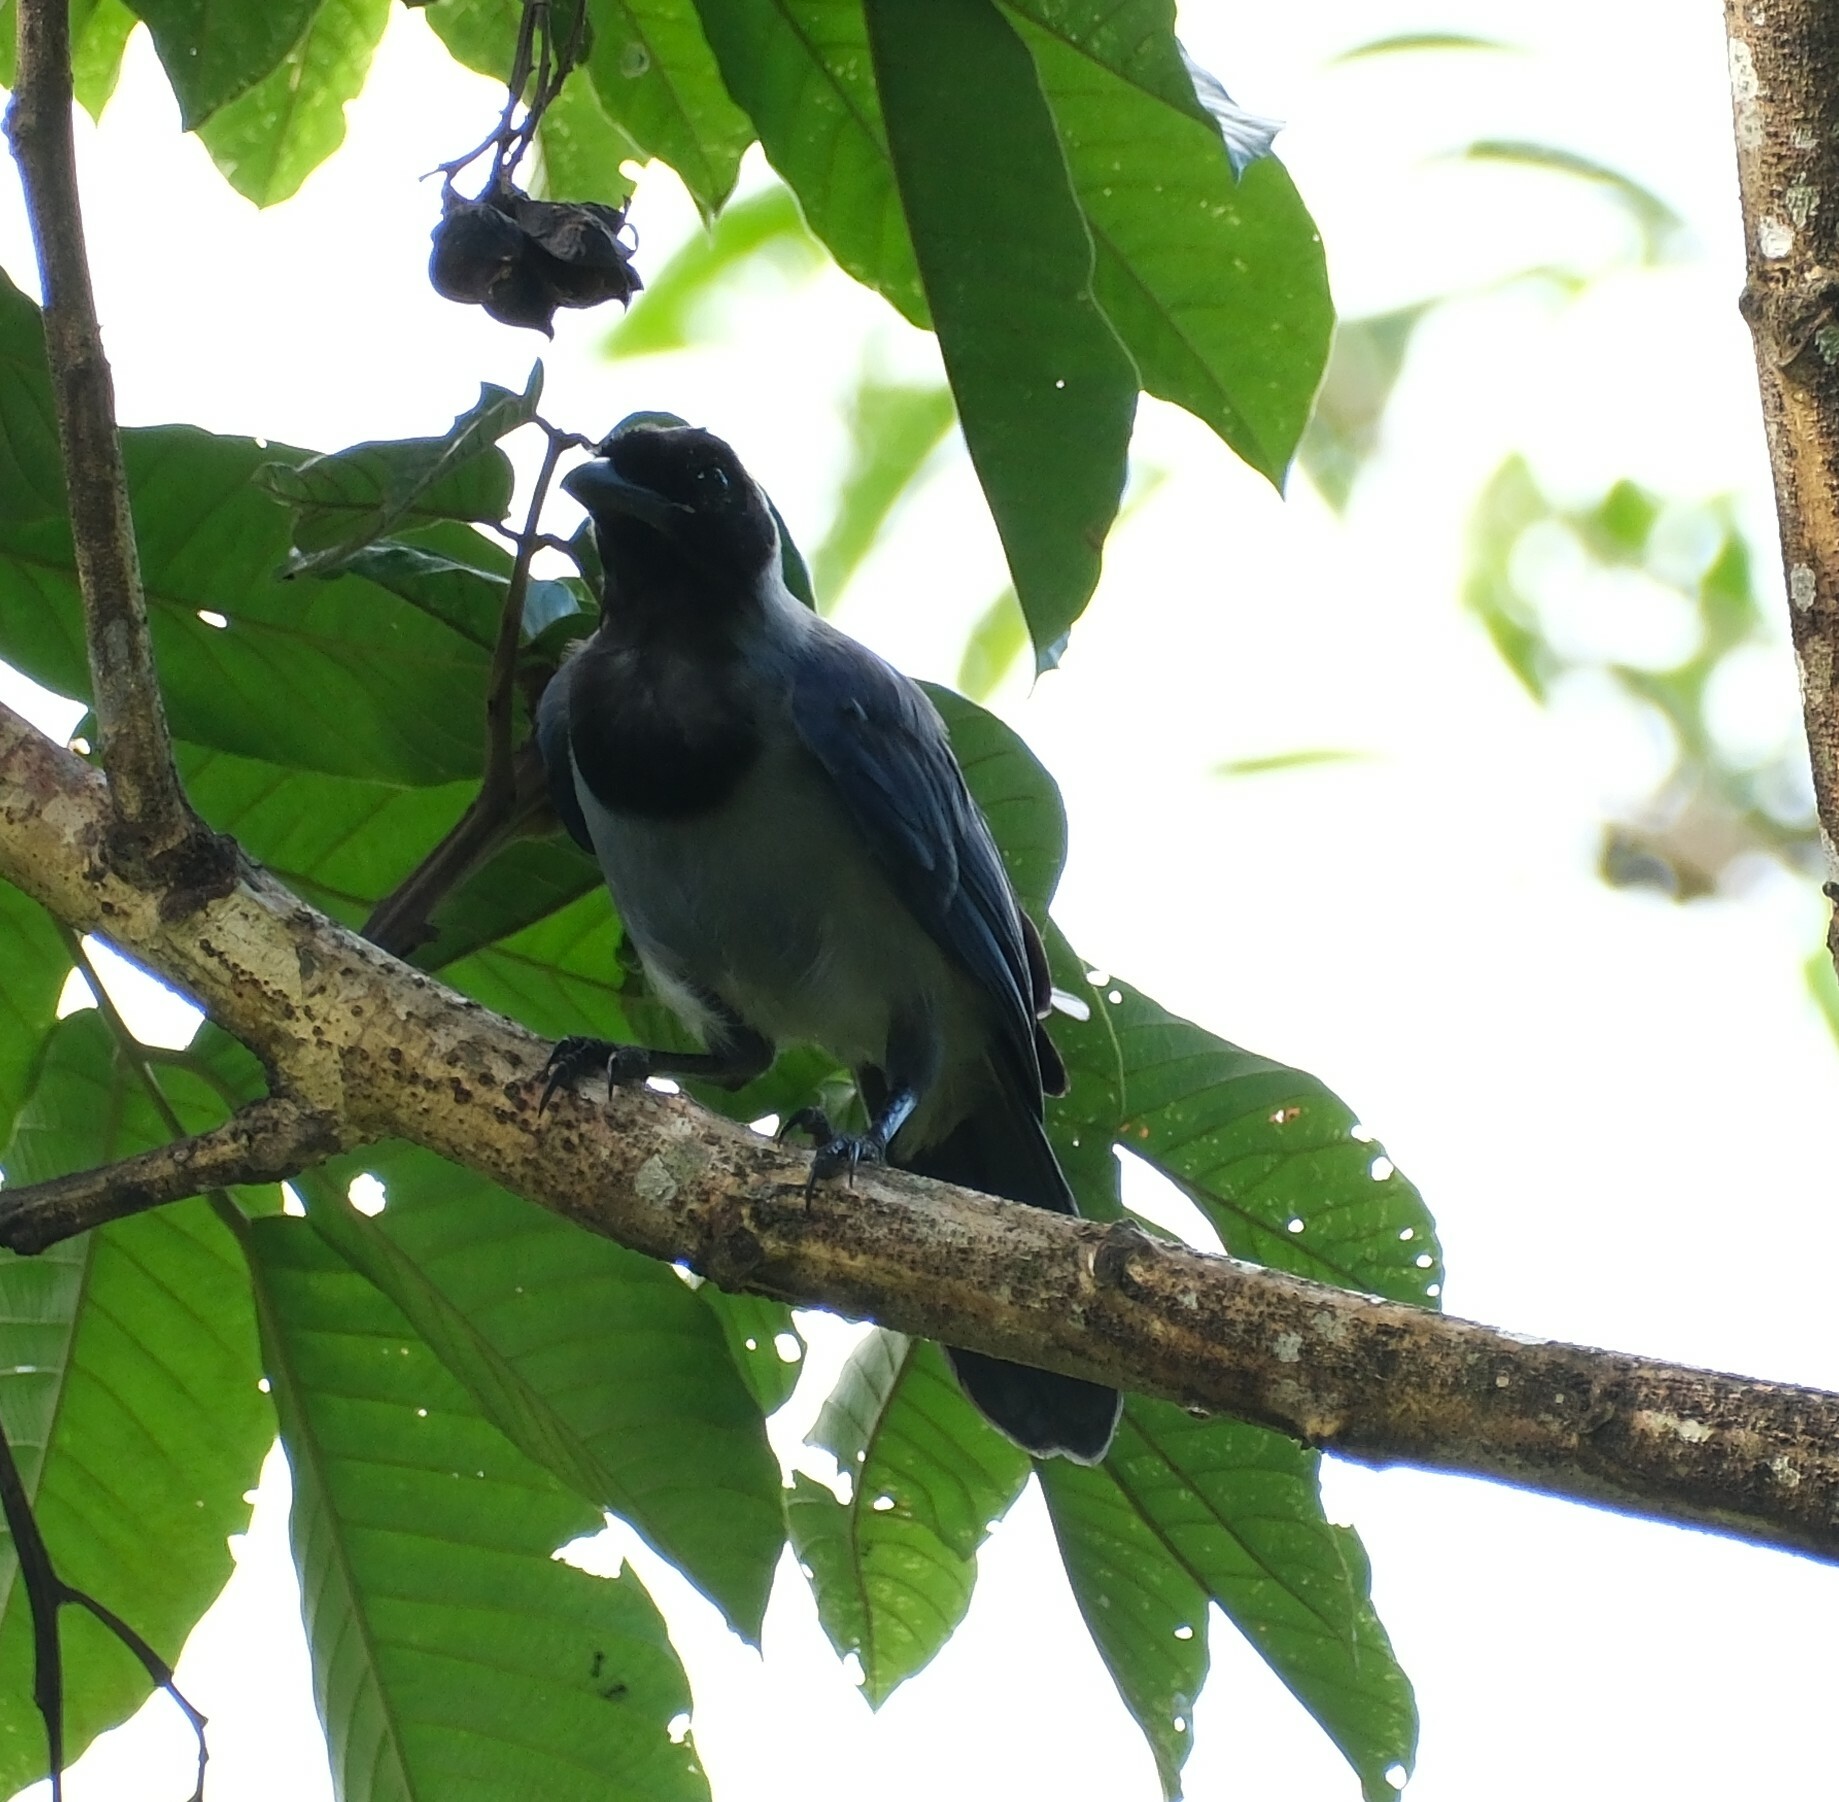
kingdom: Animalia
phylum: Chordata
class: Aves
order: Passeriformes
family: Corvidae
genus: Cyanocorax
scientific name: Cyanocorax violaceus
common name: Violaceous jay
